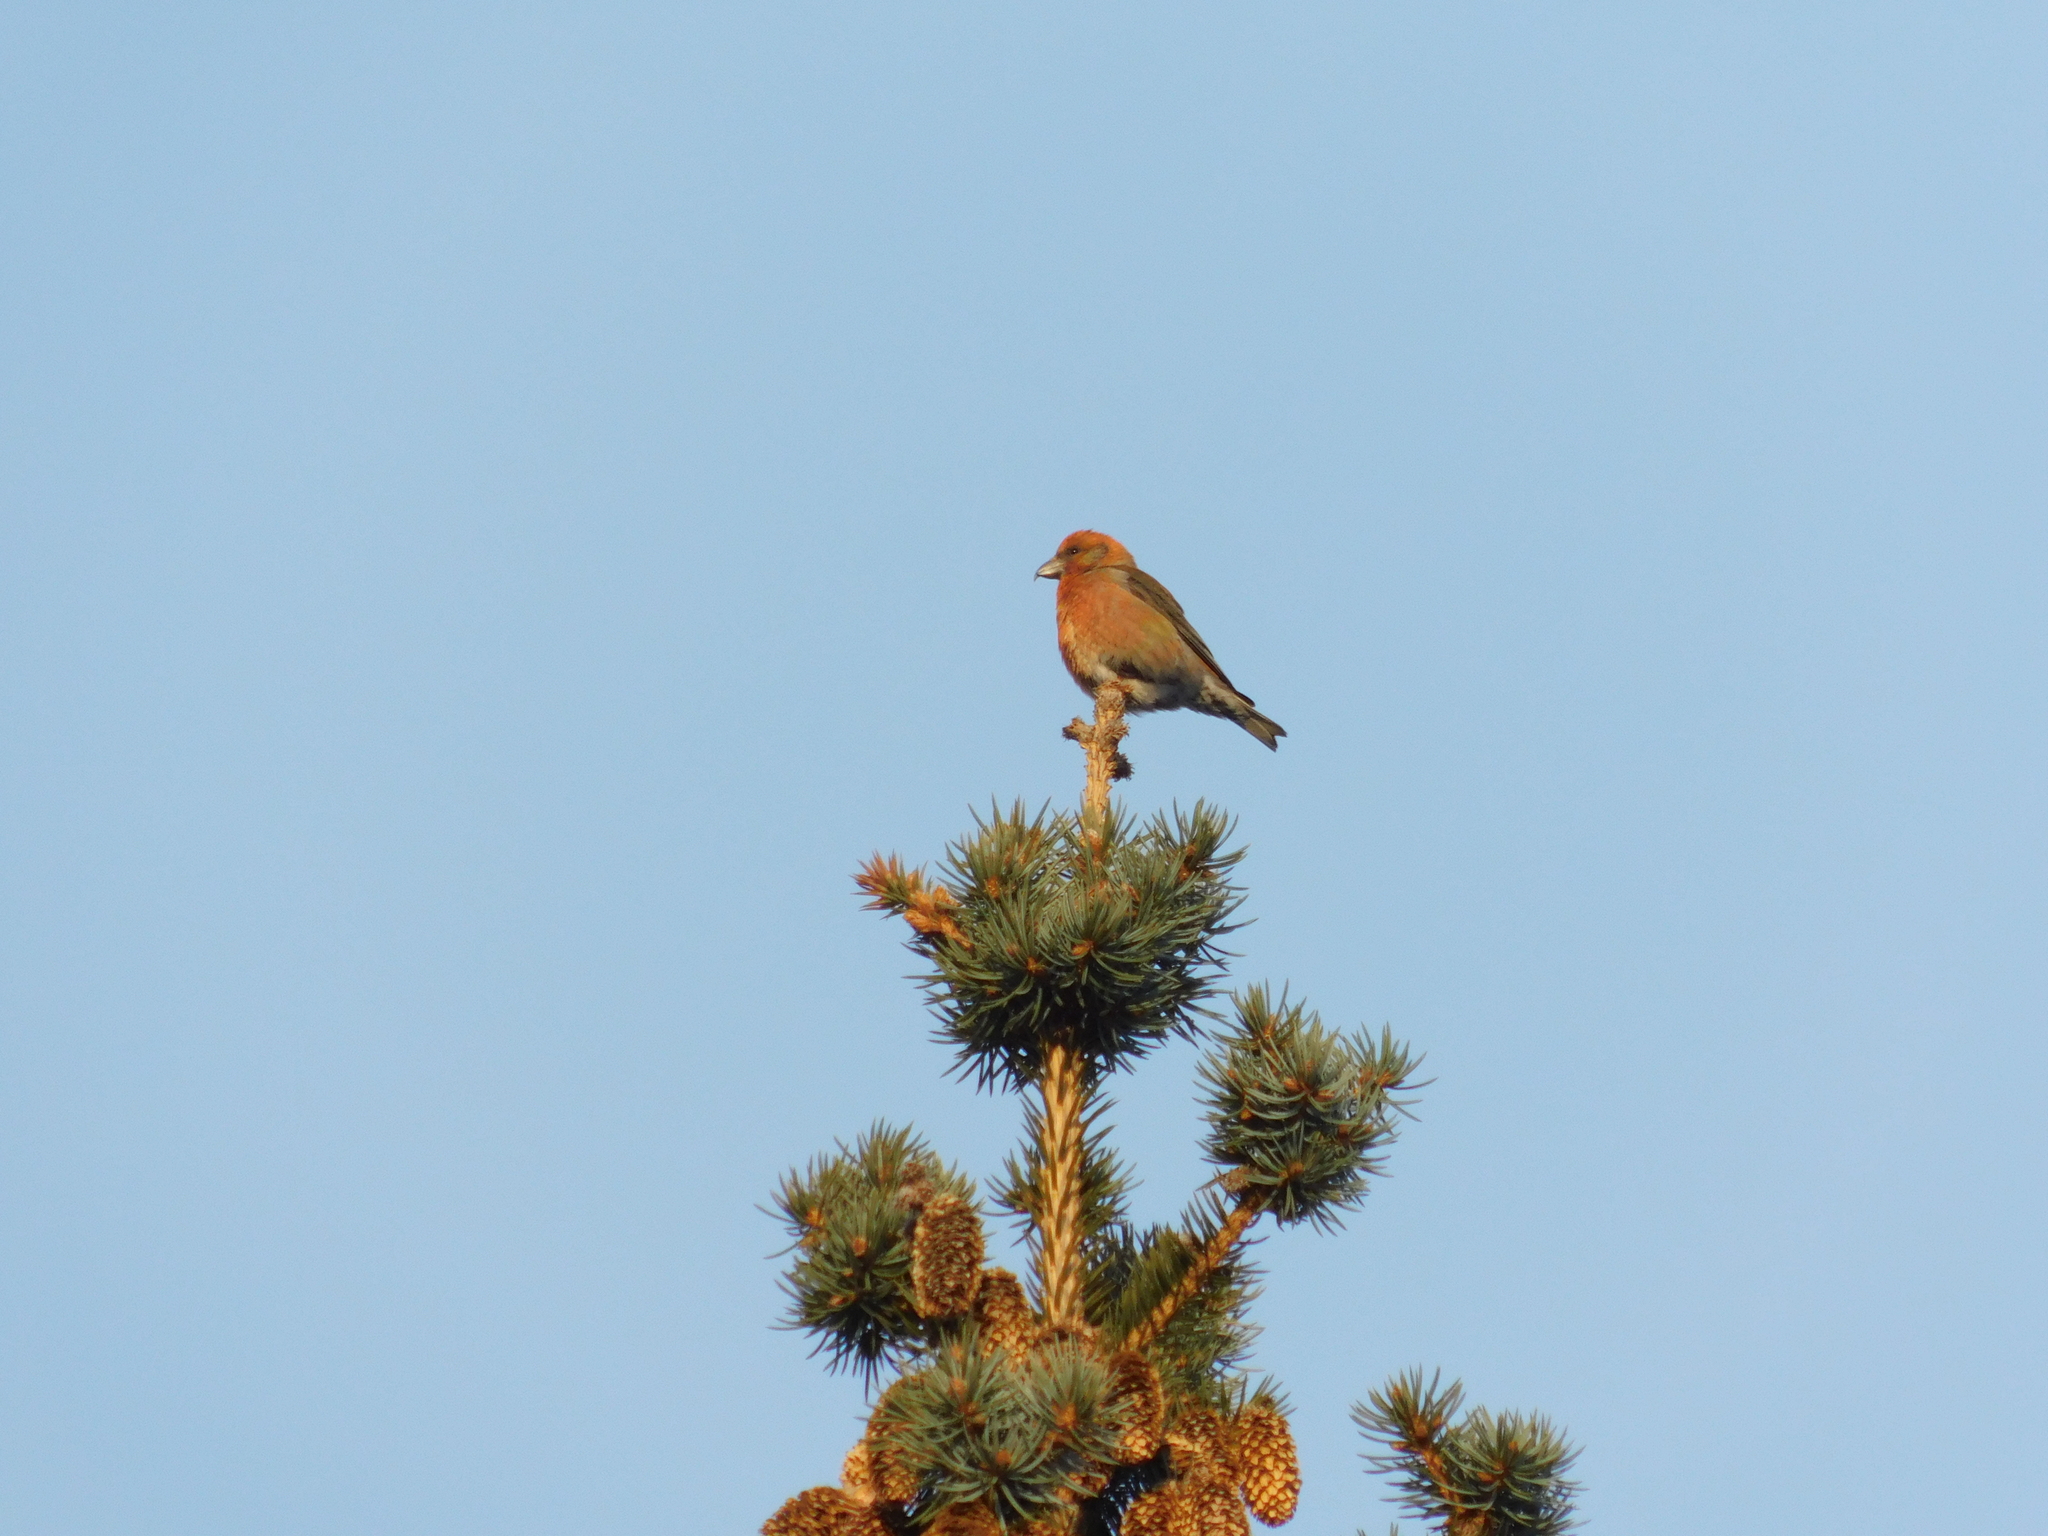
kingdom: Animalia
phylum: Chordata
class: Aves
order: Passeriformes
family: Fringillidae
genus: Loxia
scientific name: Loxia curvirostra
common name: Red crossbill
